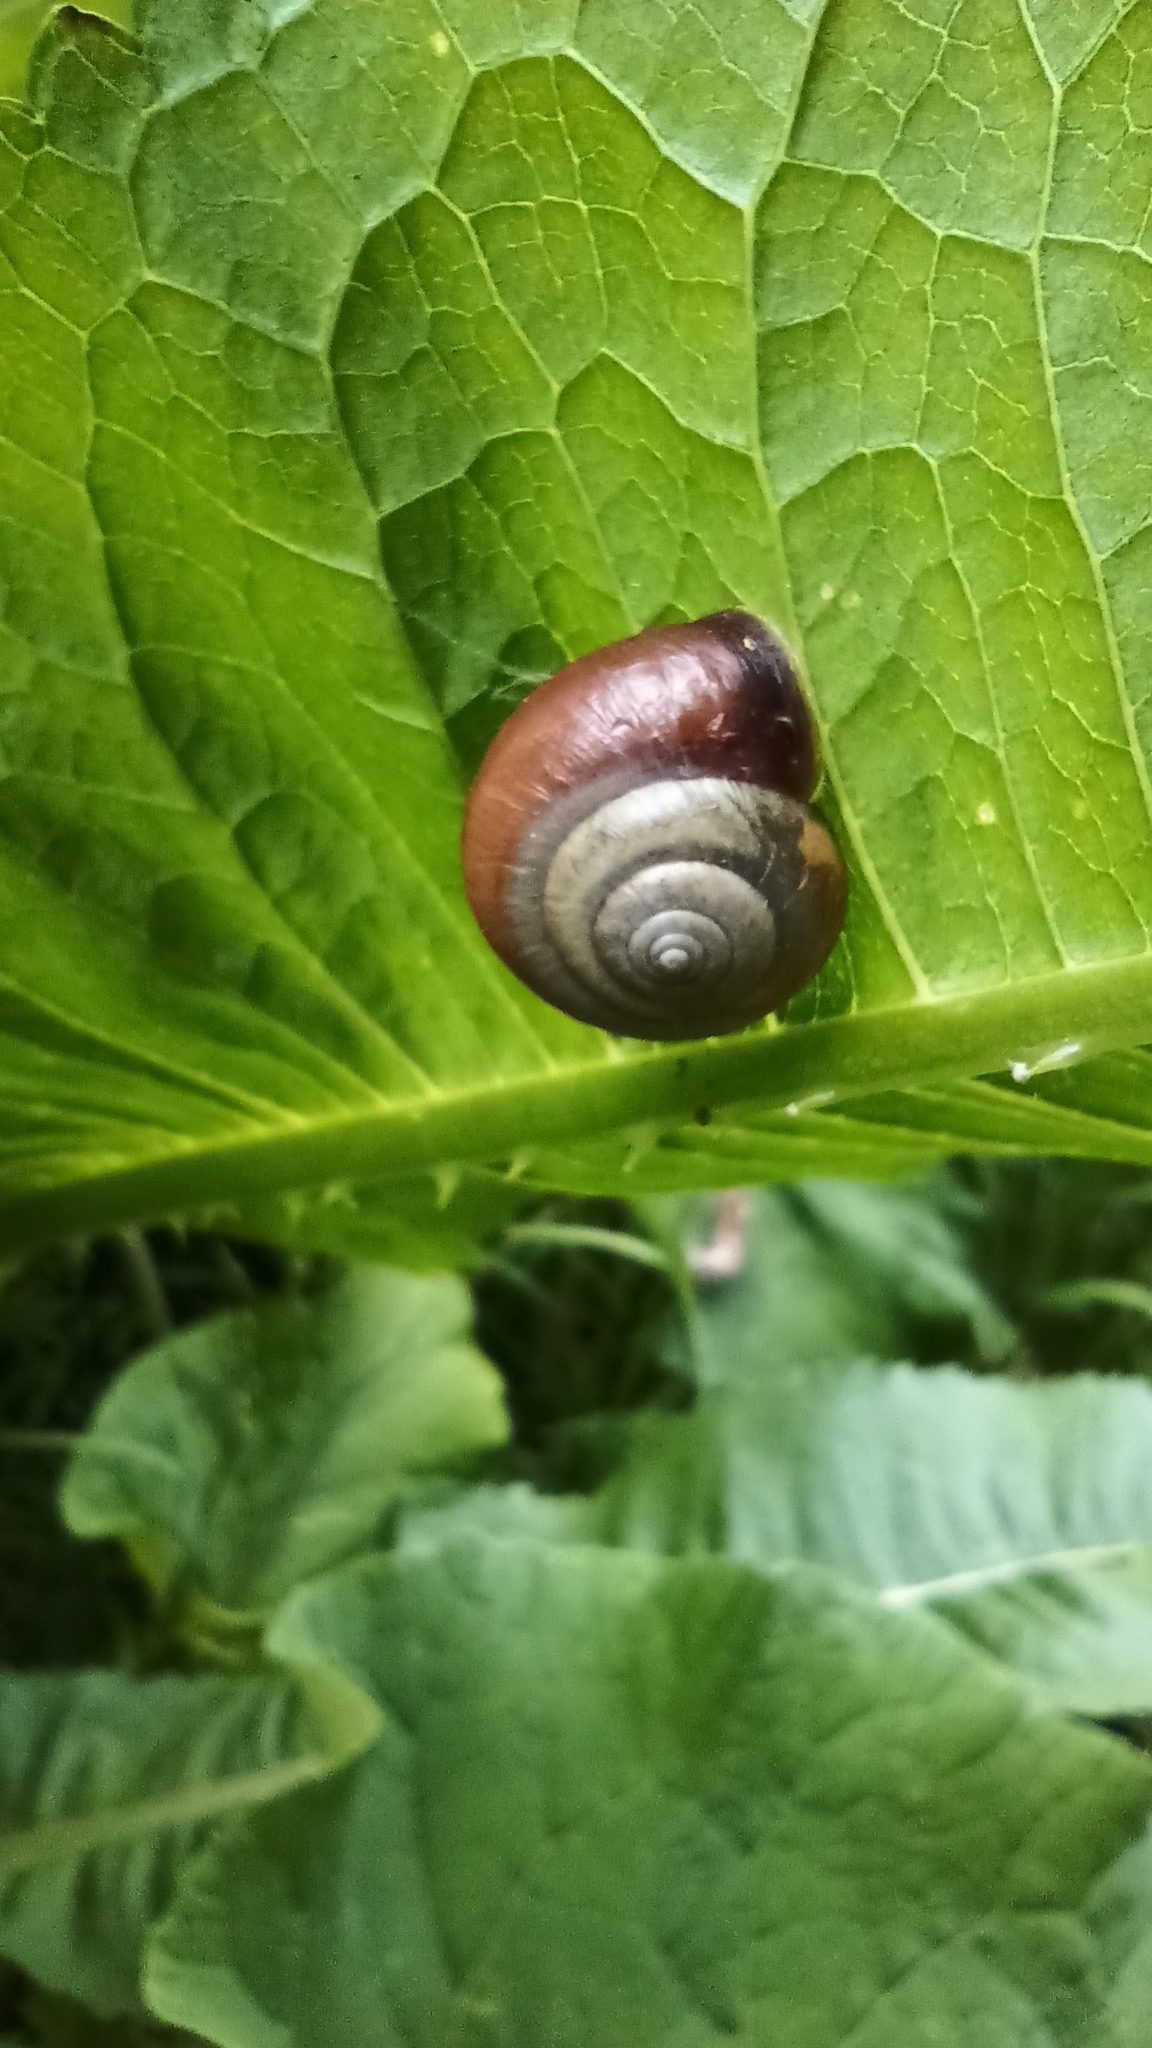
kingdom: Animalia
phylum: Mollusca
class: Gastropoda
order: Stylommatophora
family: Hygromiidae
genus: Monacha
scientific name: Monacha cantiana
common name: Kentish snail
